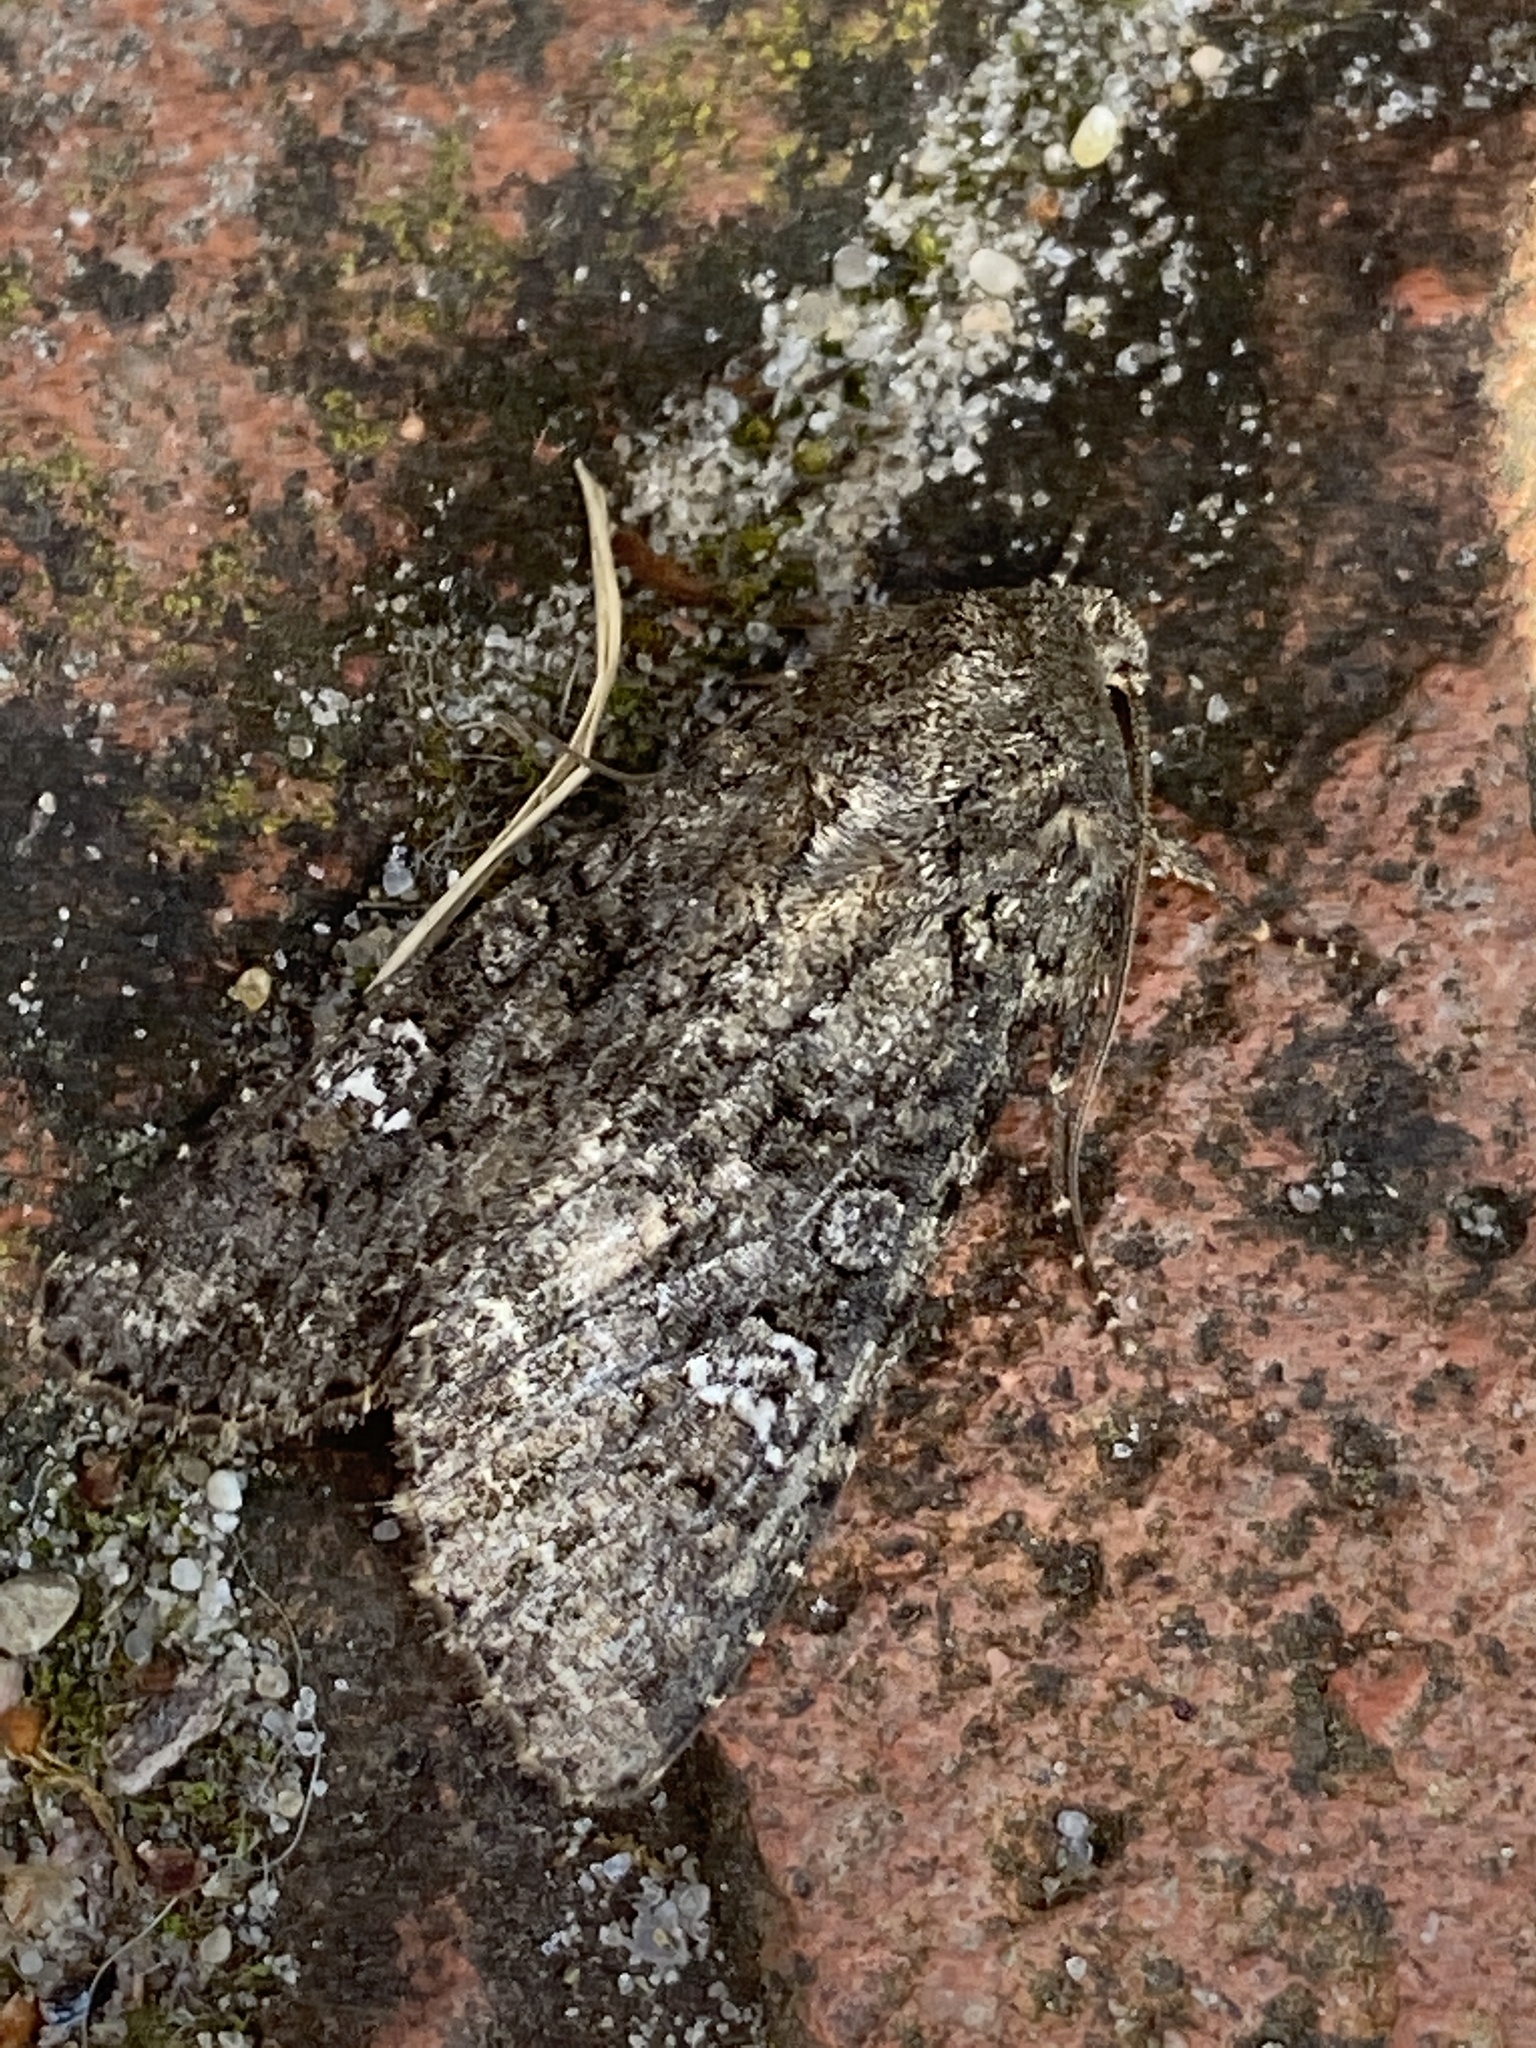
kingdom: Animalia
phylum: Arthropoda
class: Insecta
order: Lepidoptera
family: Noctuidae
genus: Mamestra
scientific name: Mamestra brassicae
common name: Cabbage moth
